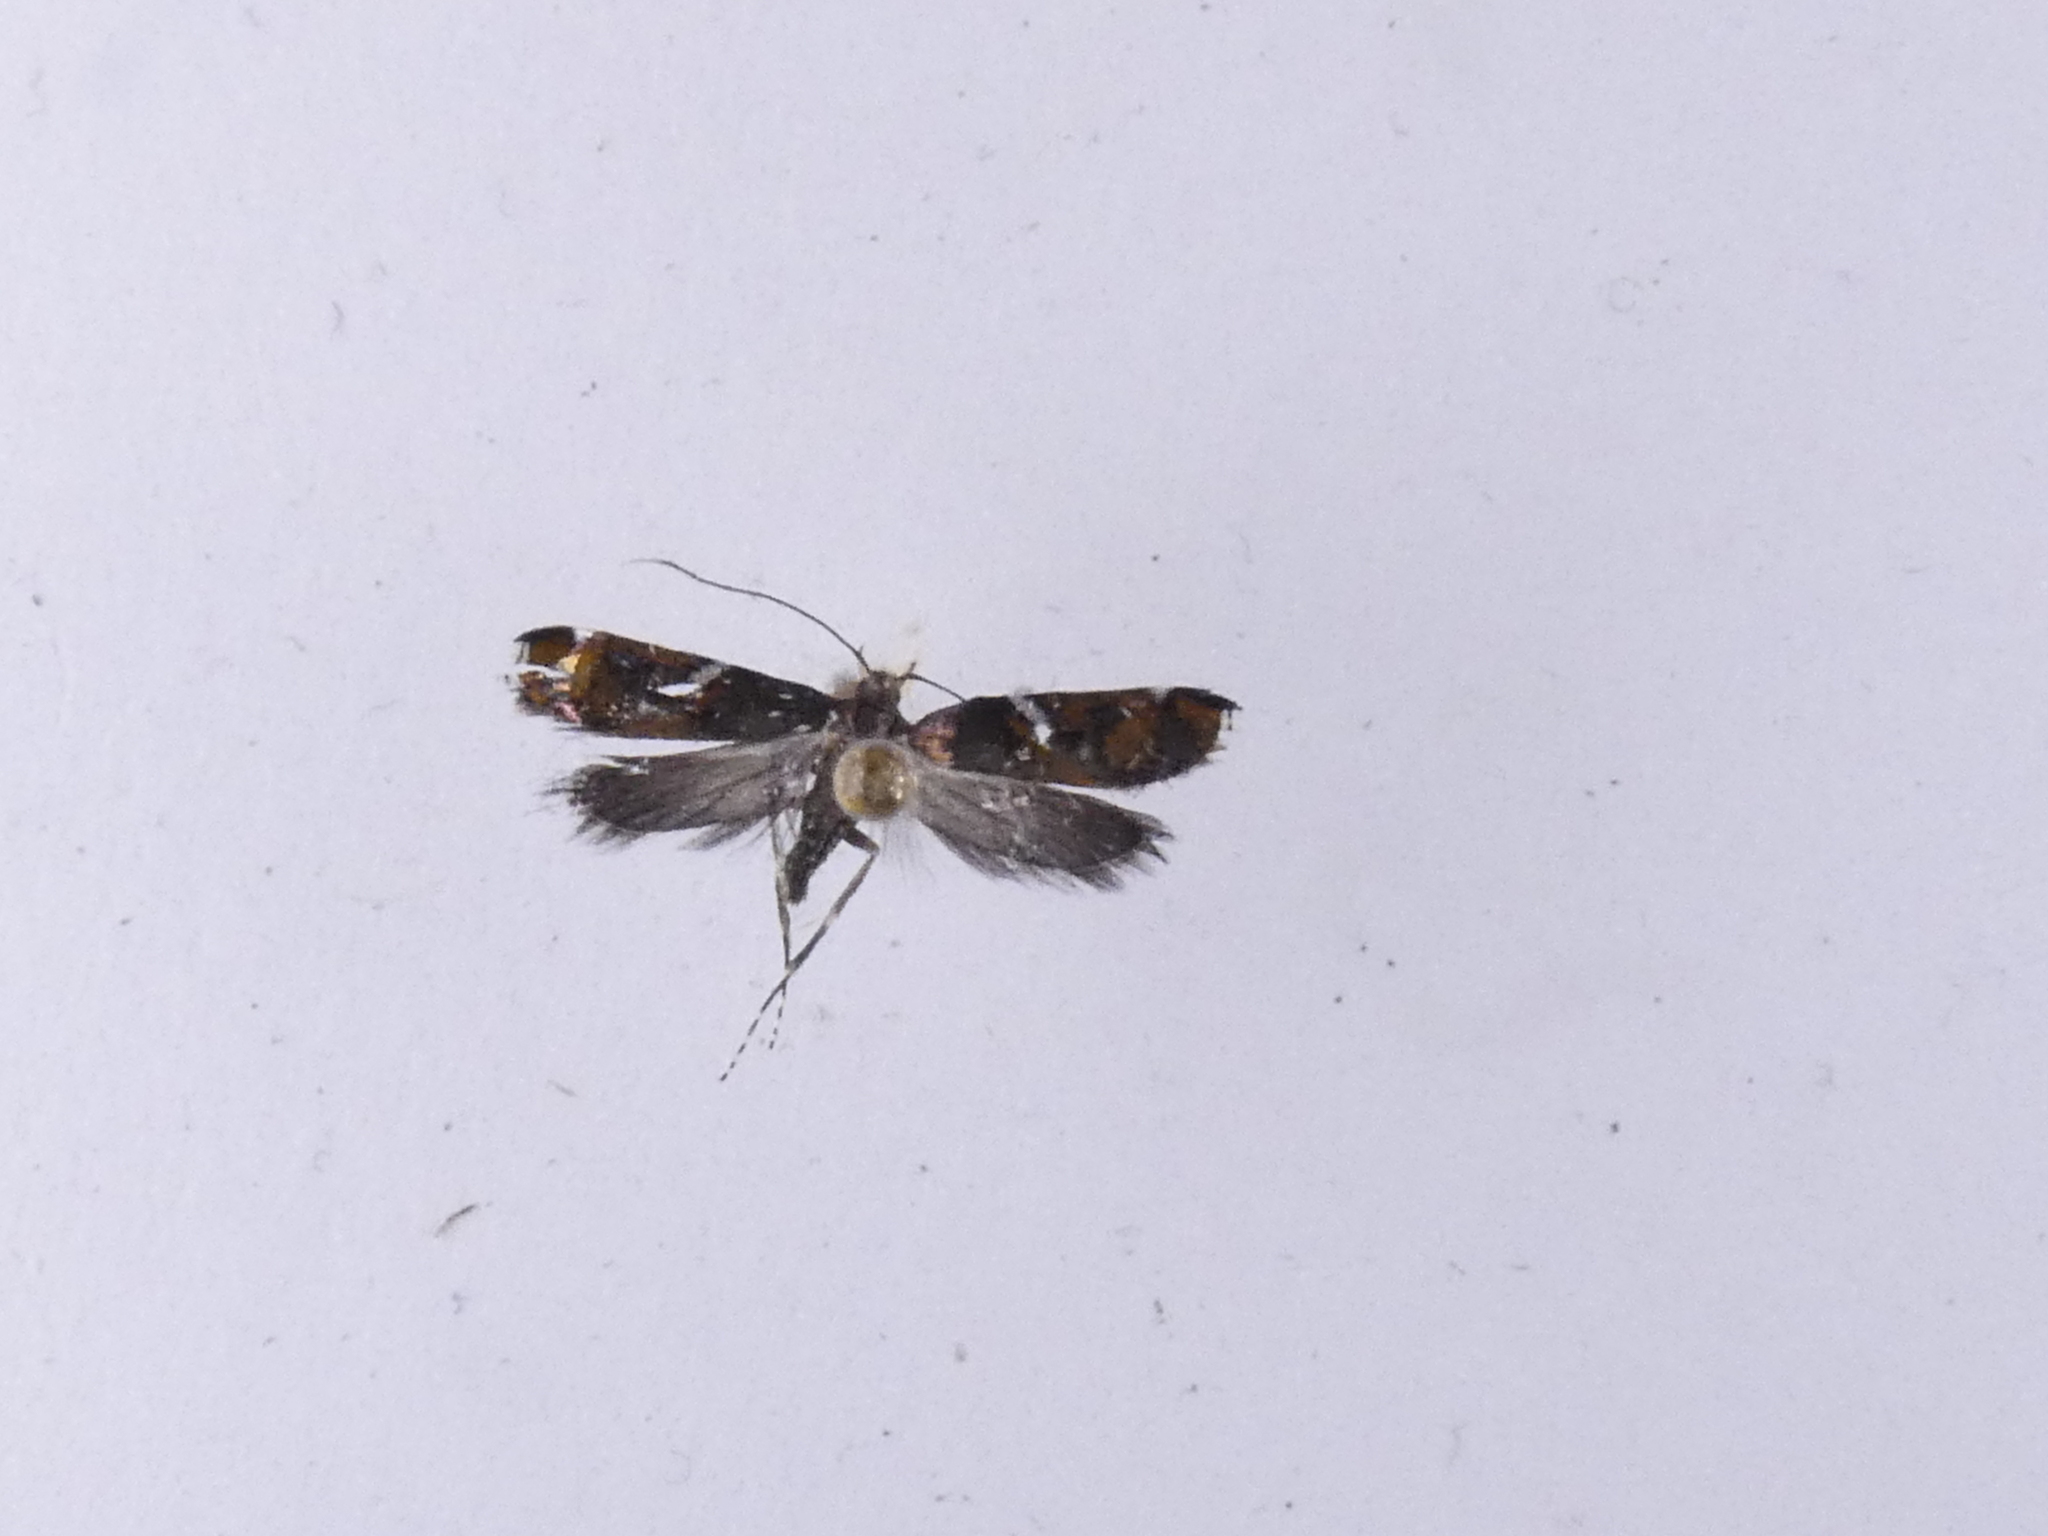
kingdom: Animalia
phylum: Arthropoda
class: Insecta
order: Lepidoptera
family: Depressariidae
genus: Compsistis
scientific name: Compsistis bifaciella
